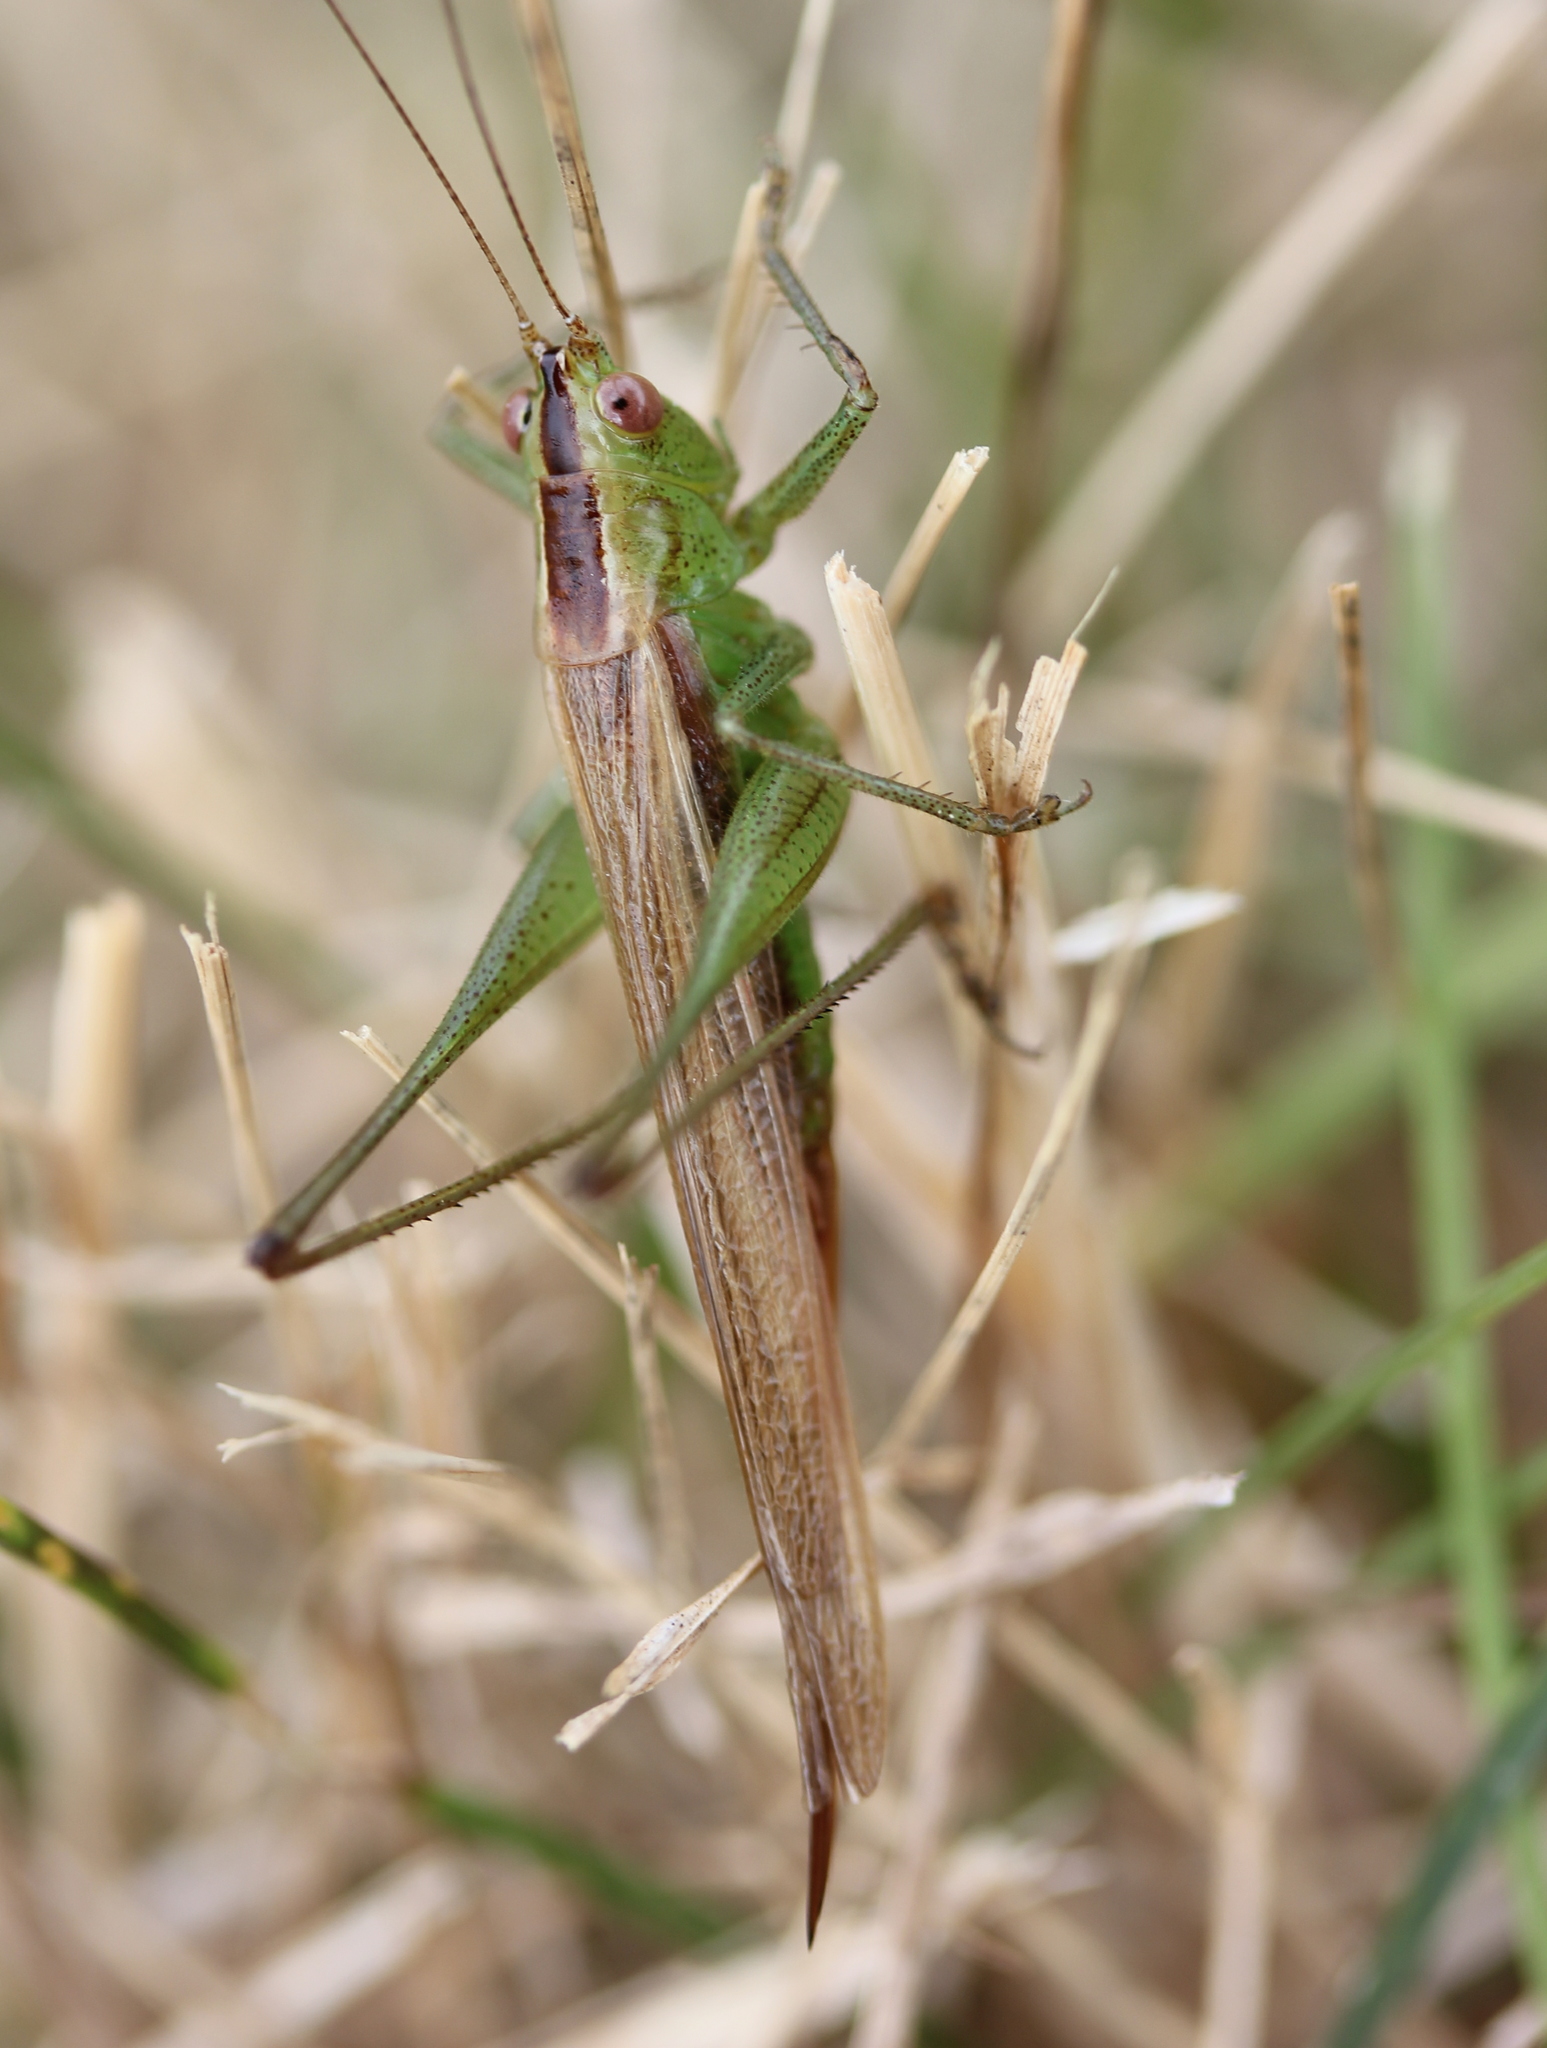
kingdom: Animalia
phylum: Arthropoda
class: Insecta
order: Orthoptera
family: Tettigoniidae
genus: Conocephalus
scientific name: Conocephalus brevipennis
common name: Short-winged meadow katydid
